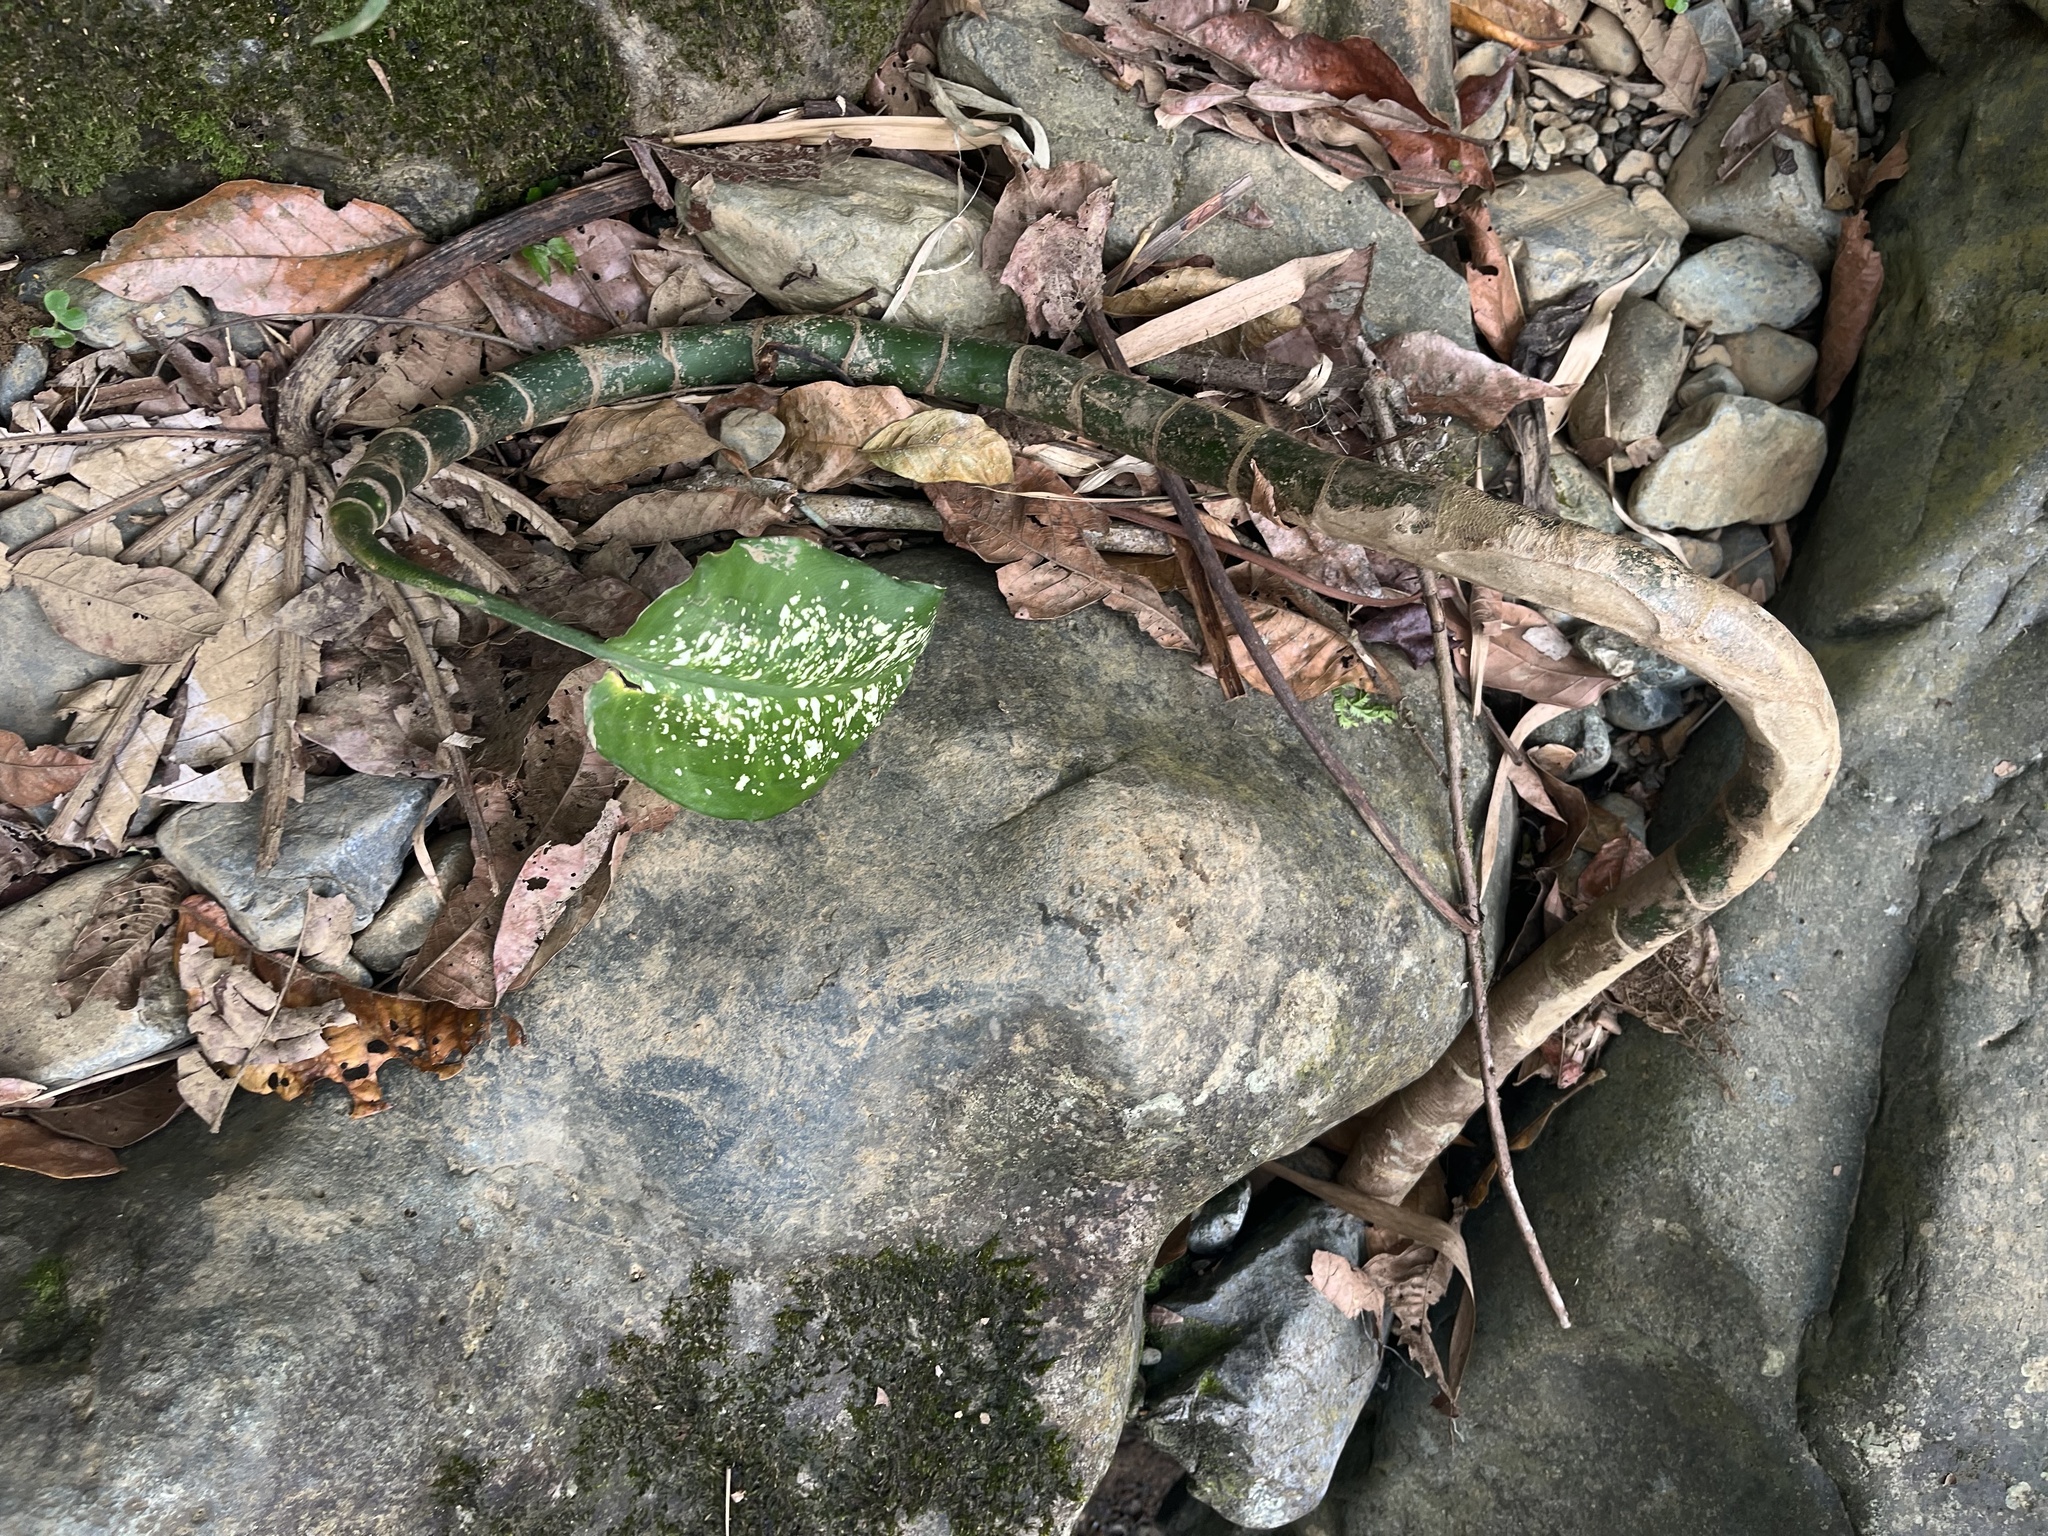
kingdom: Plantae
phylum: Tracheophyta
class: Liliopsida
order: Alismatales
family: Araceae
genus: Dieffenbachia
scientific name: Dieffenbachia seguine
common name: Dumbcane
